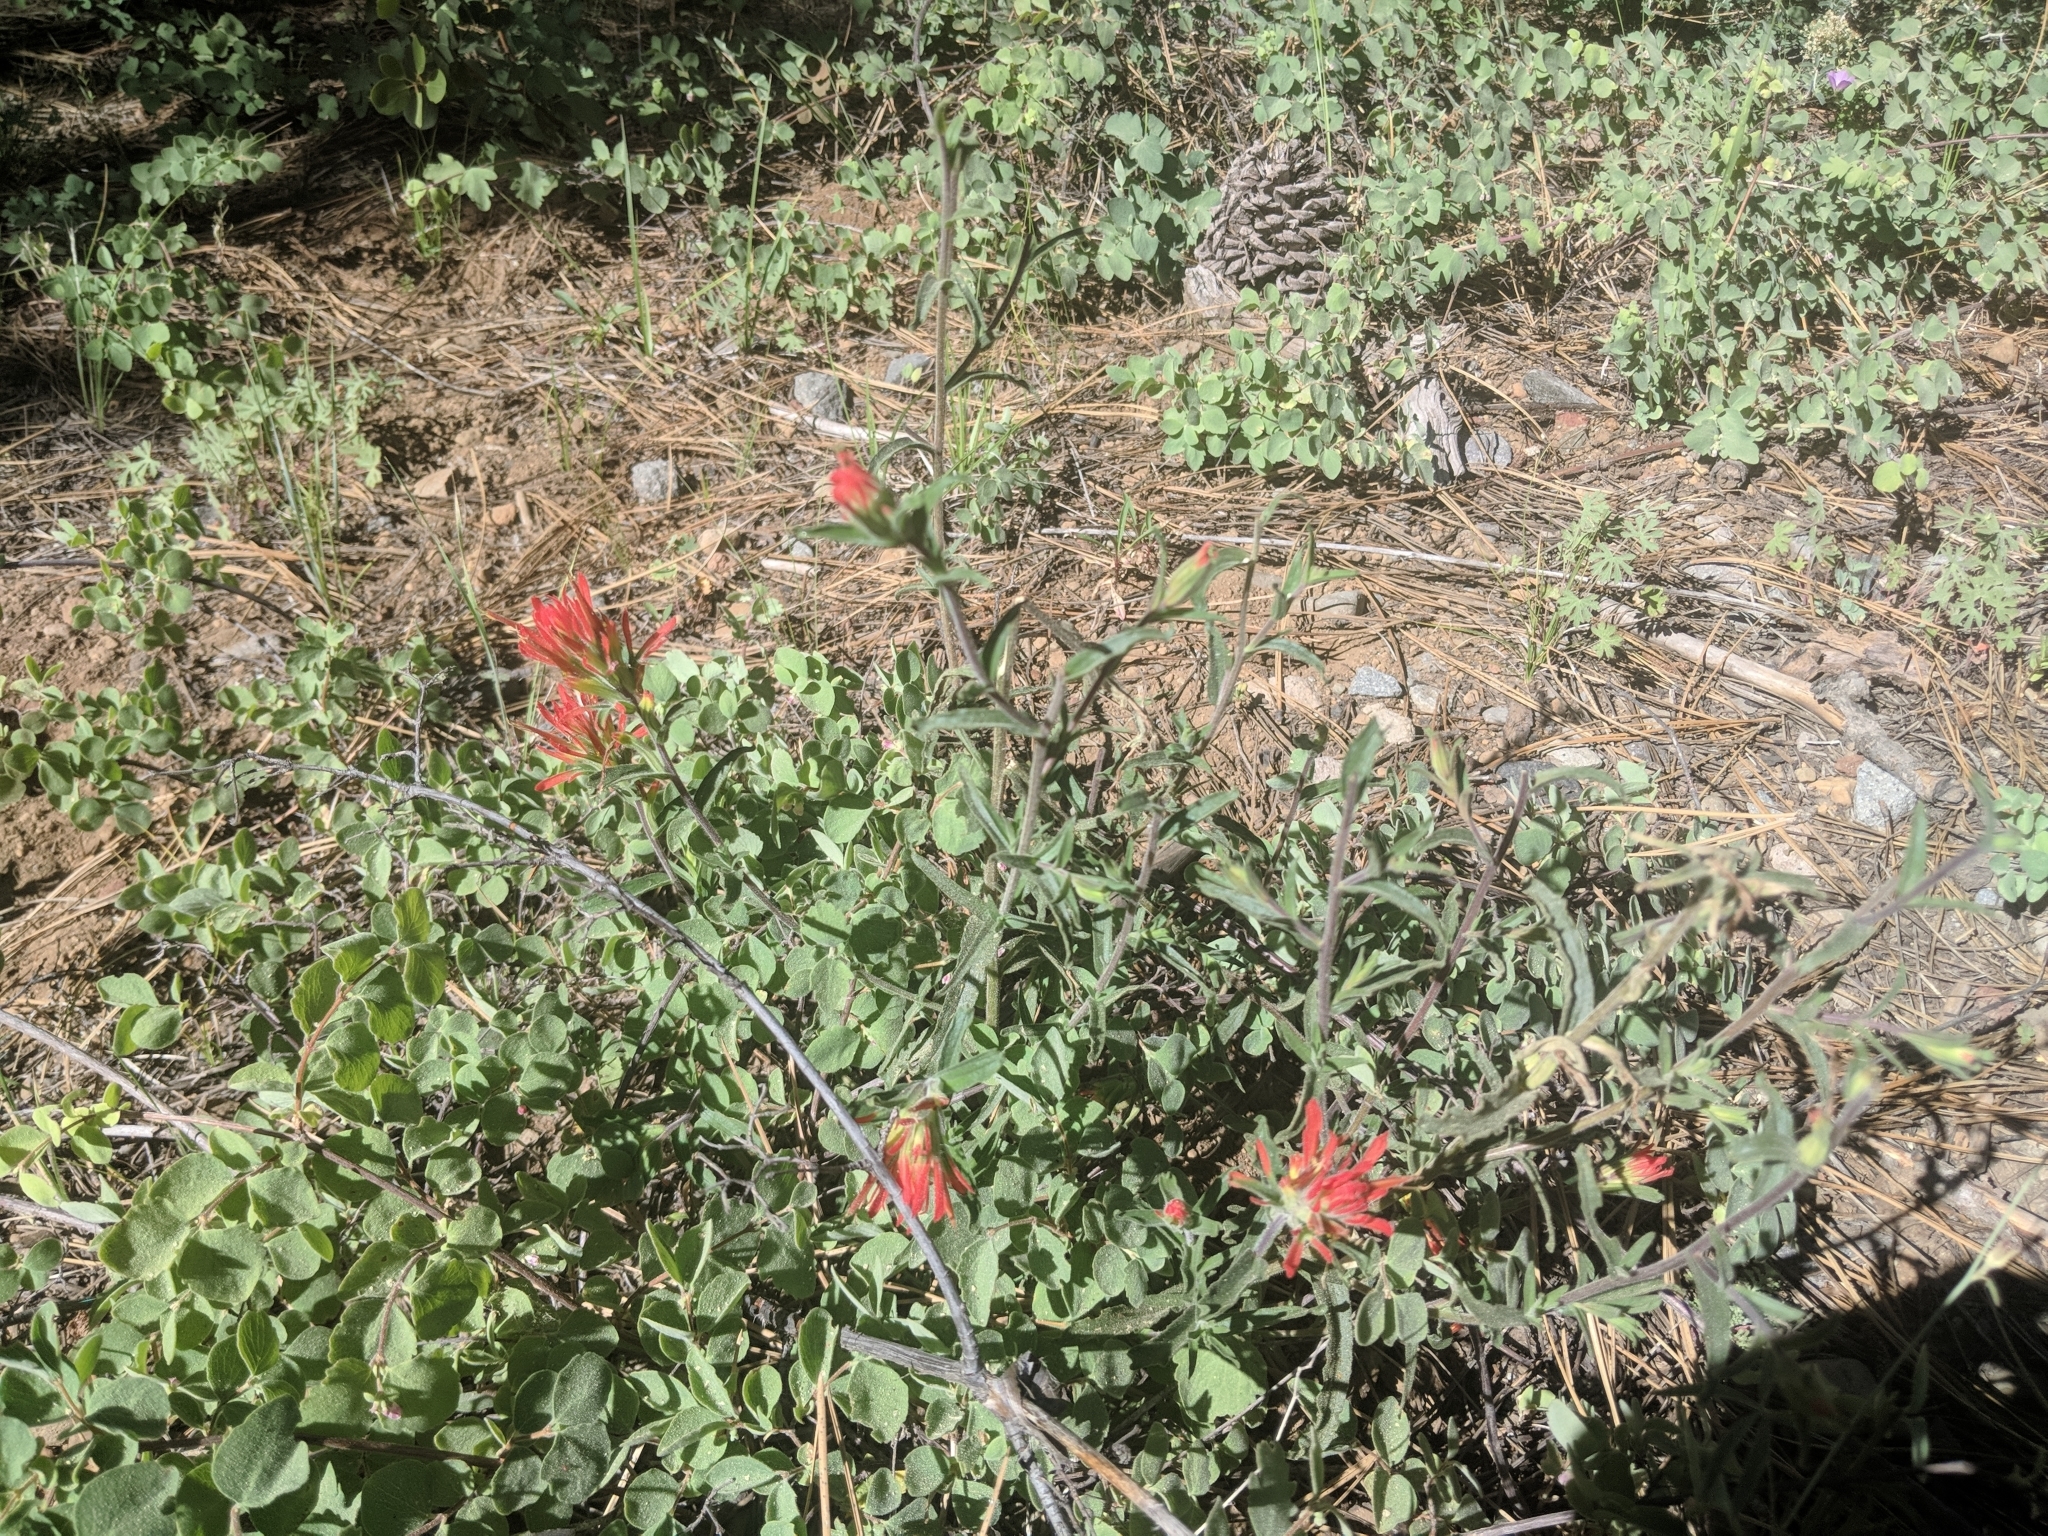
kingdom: Plantae
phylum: Tracheophyta
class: Magnoliopsida
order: Lamiales
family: Orobanchaceae
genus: Castilleja
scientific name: Castilleja applegatei
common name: Wavy-leaf paintbrush
